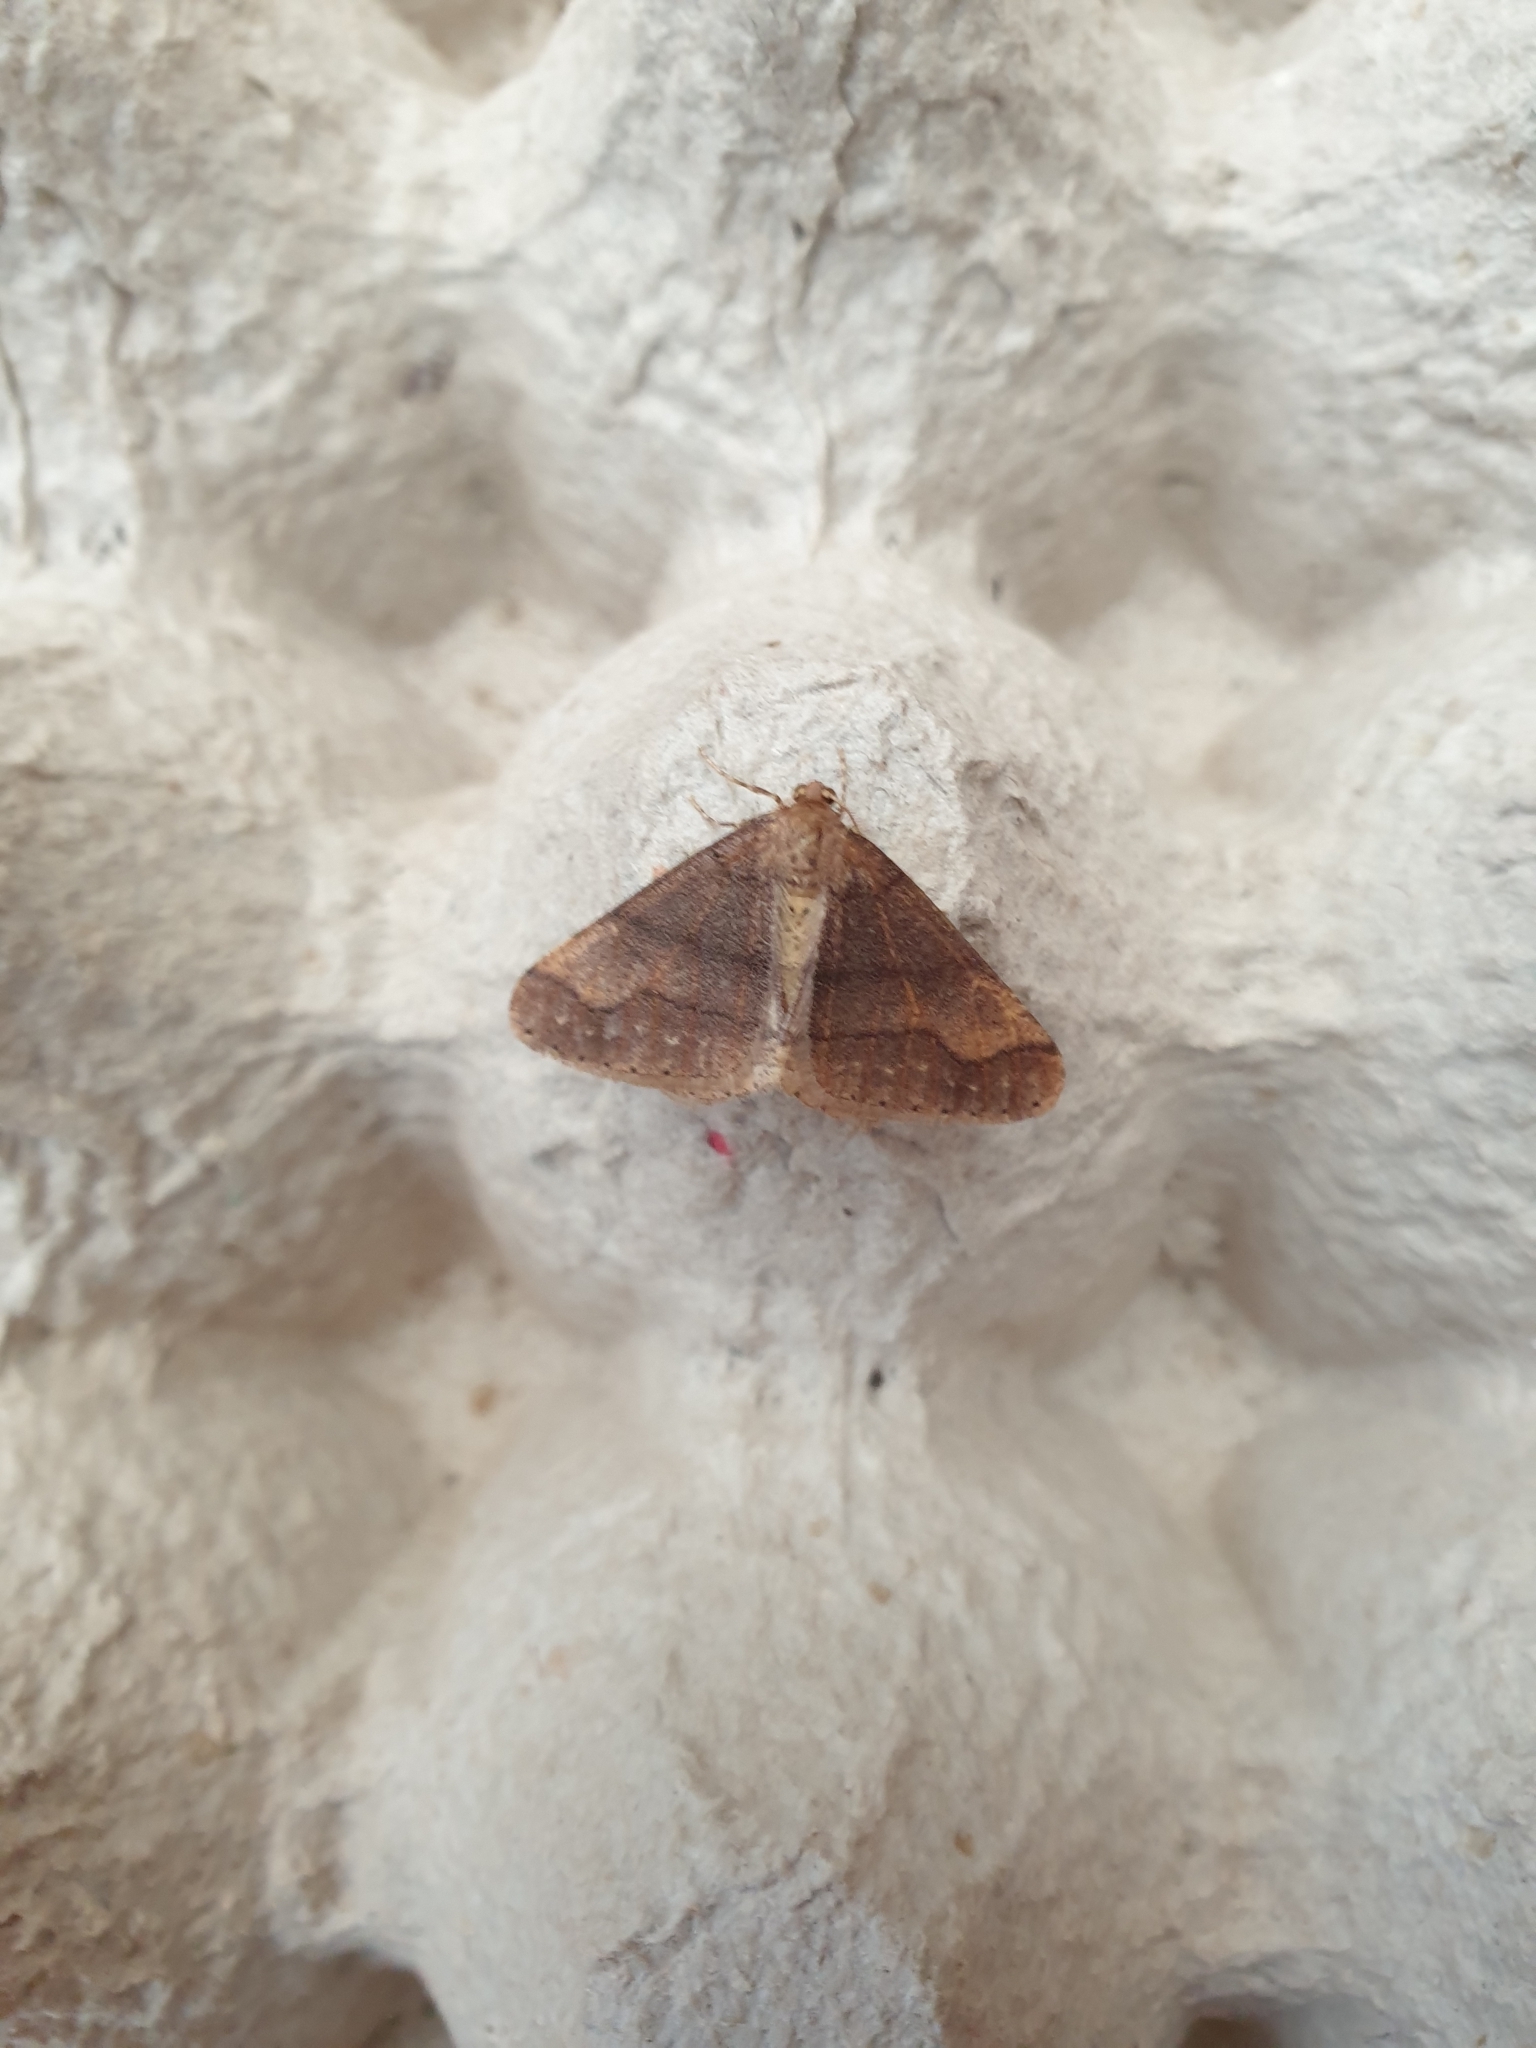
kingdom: Animalia
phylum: Arthropoda
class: Insecta
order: Lepidoptera
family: Geometridae
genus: Agriopis
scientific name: Agriopis marginaria
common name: Dotted border
